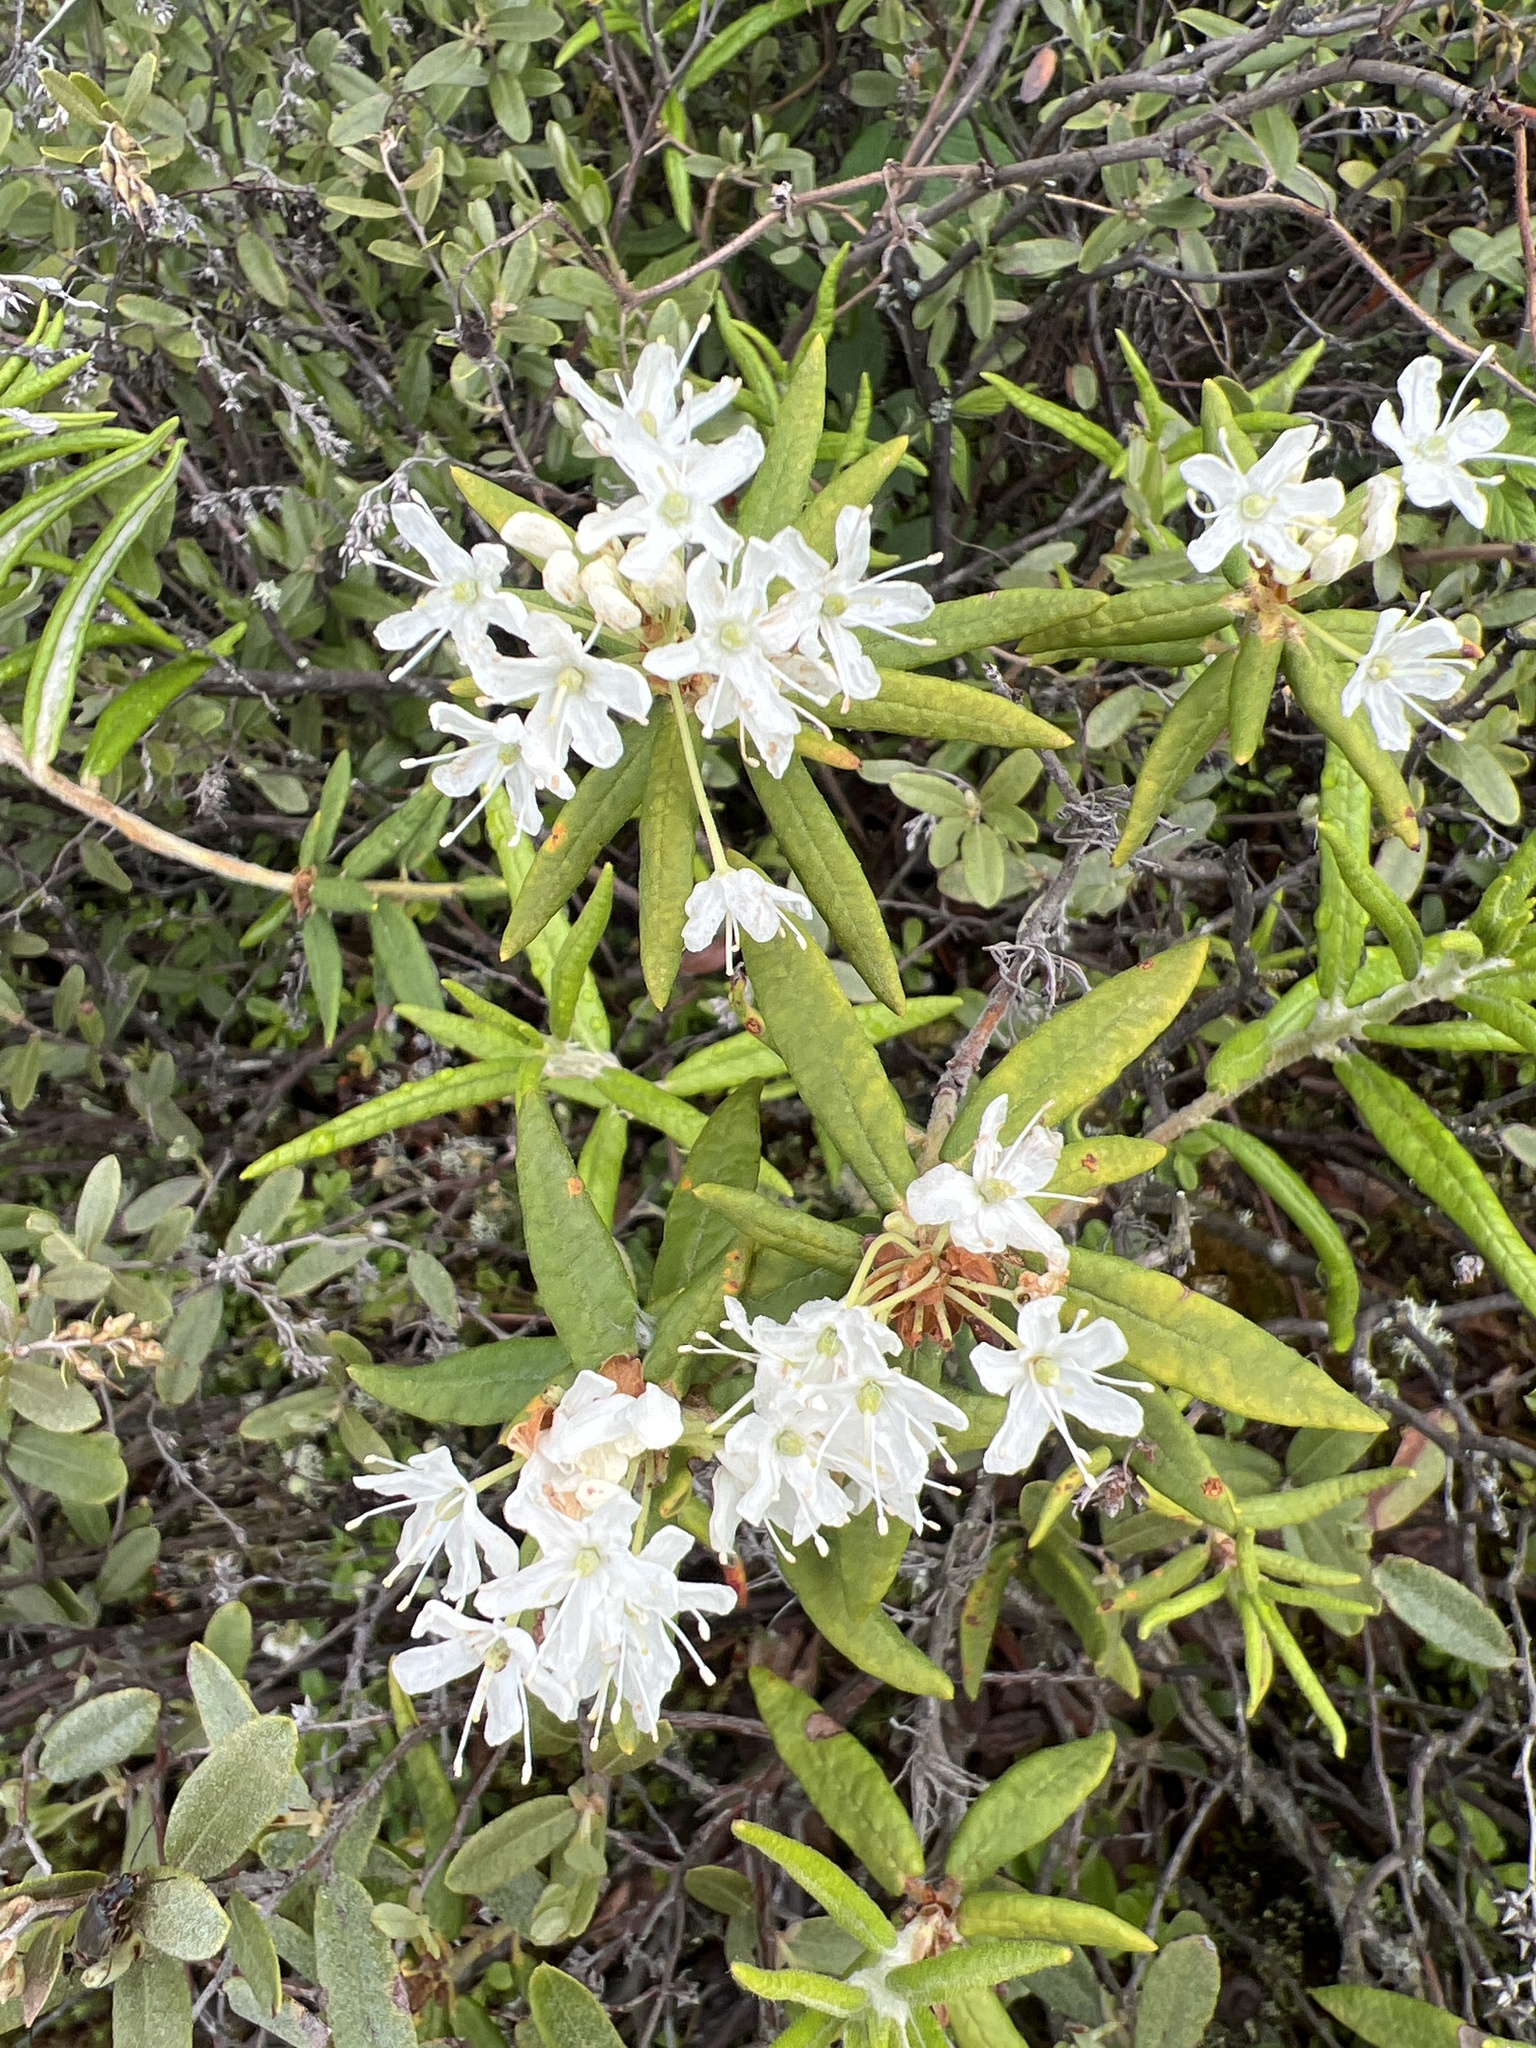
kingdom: Plantae
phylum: Tracheophyta
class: Magnoliopsida
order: Ericales
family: Ericaceae
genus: Rhododendron
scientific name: Rhododendron groenlandicum
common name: Bog labrador tea
